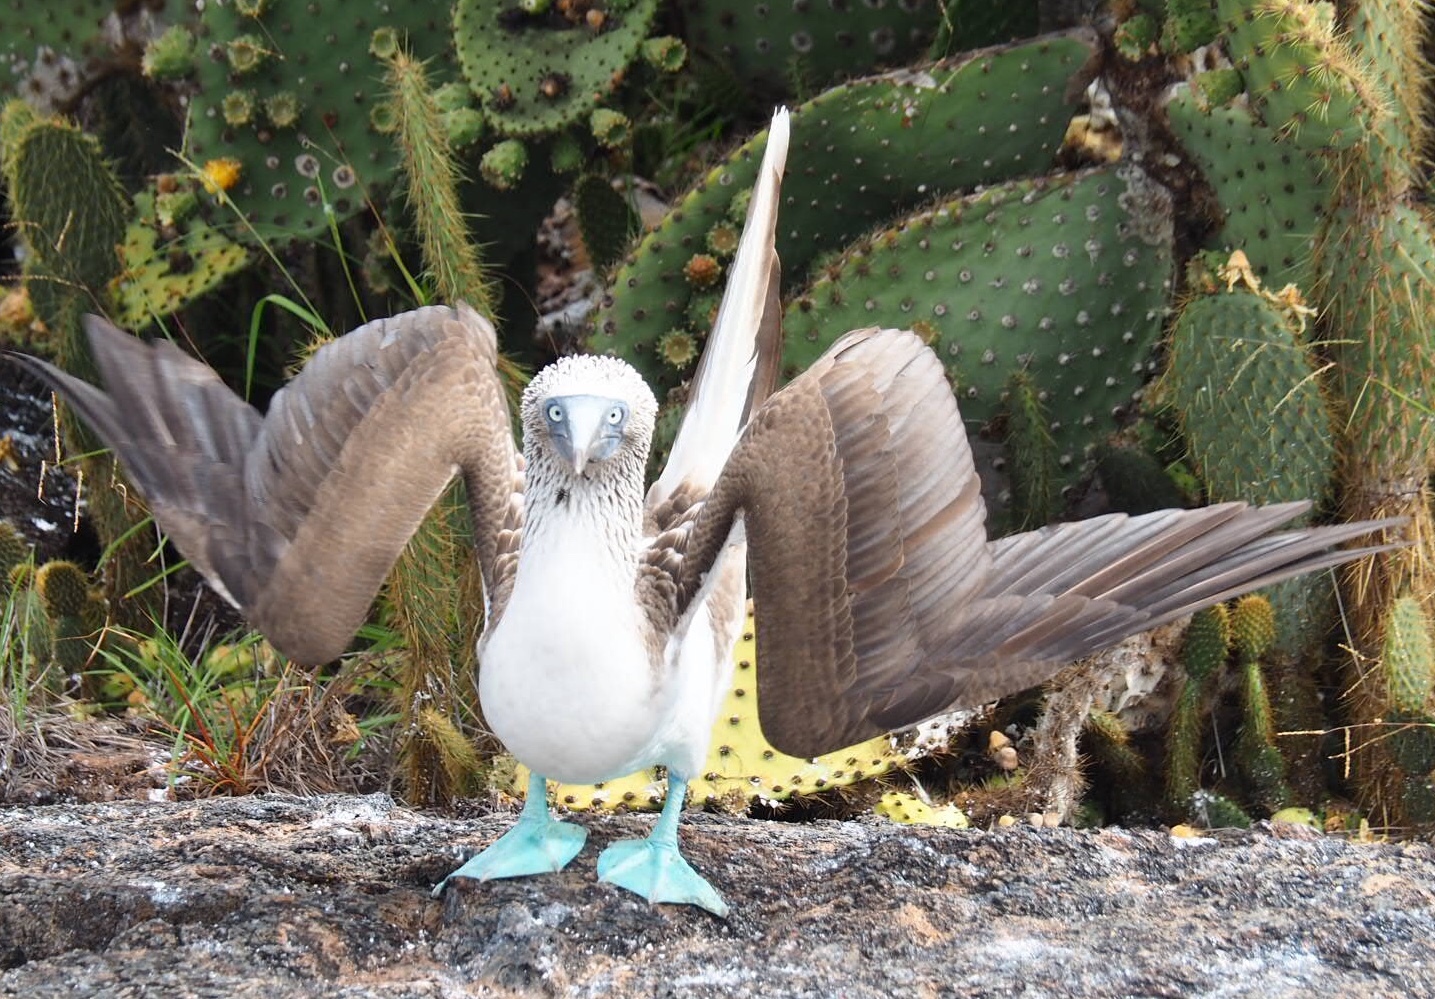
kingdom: Animalia
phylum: Chordata
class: Aves
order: Suliformes
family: Sulidae
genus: Sula
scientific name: Sula nebouxii
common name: Blue-footed booby
